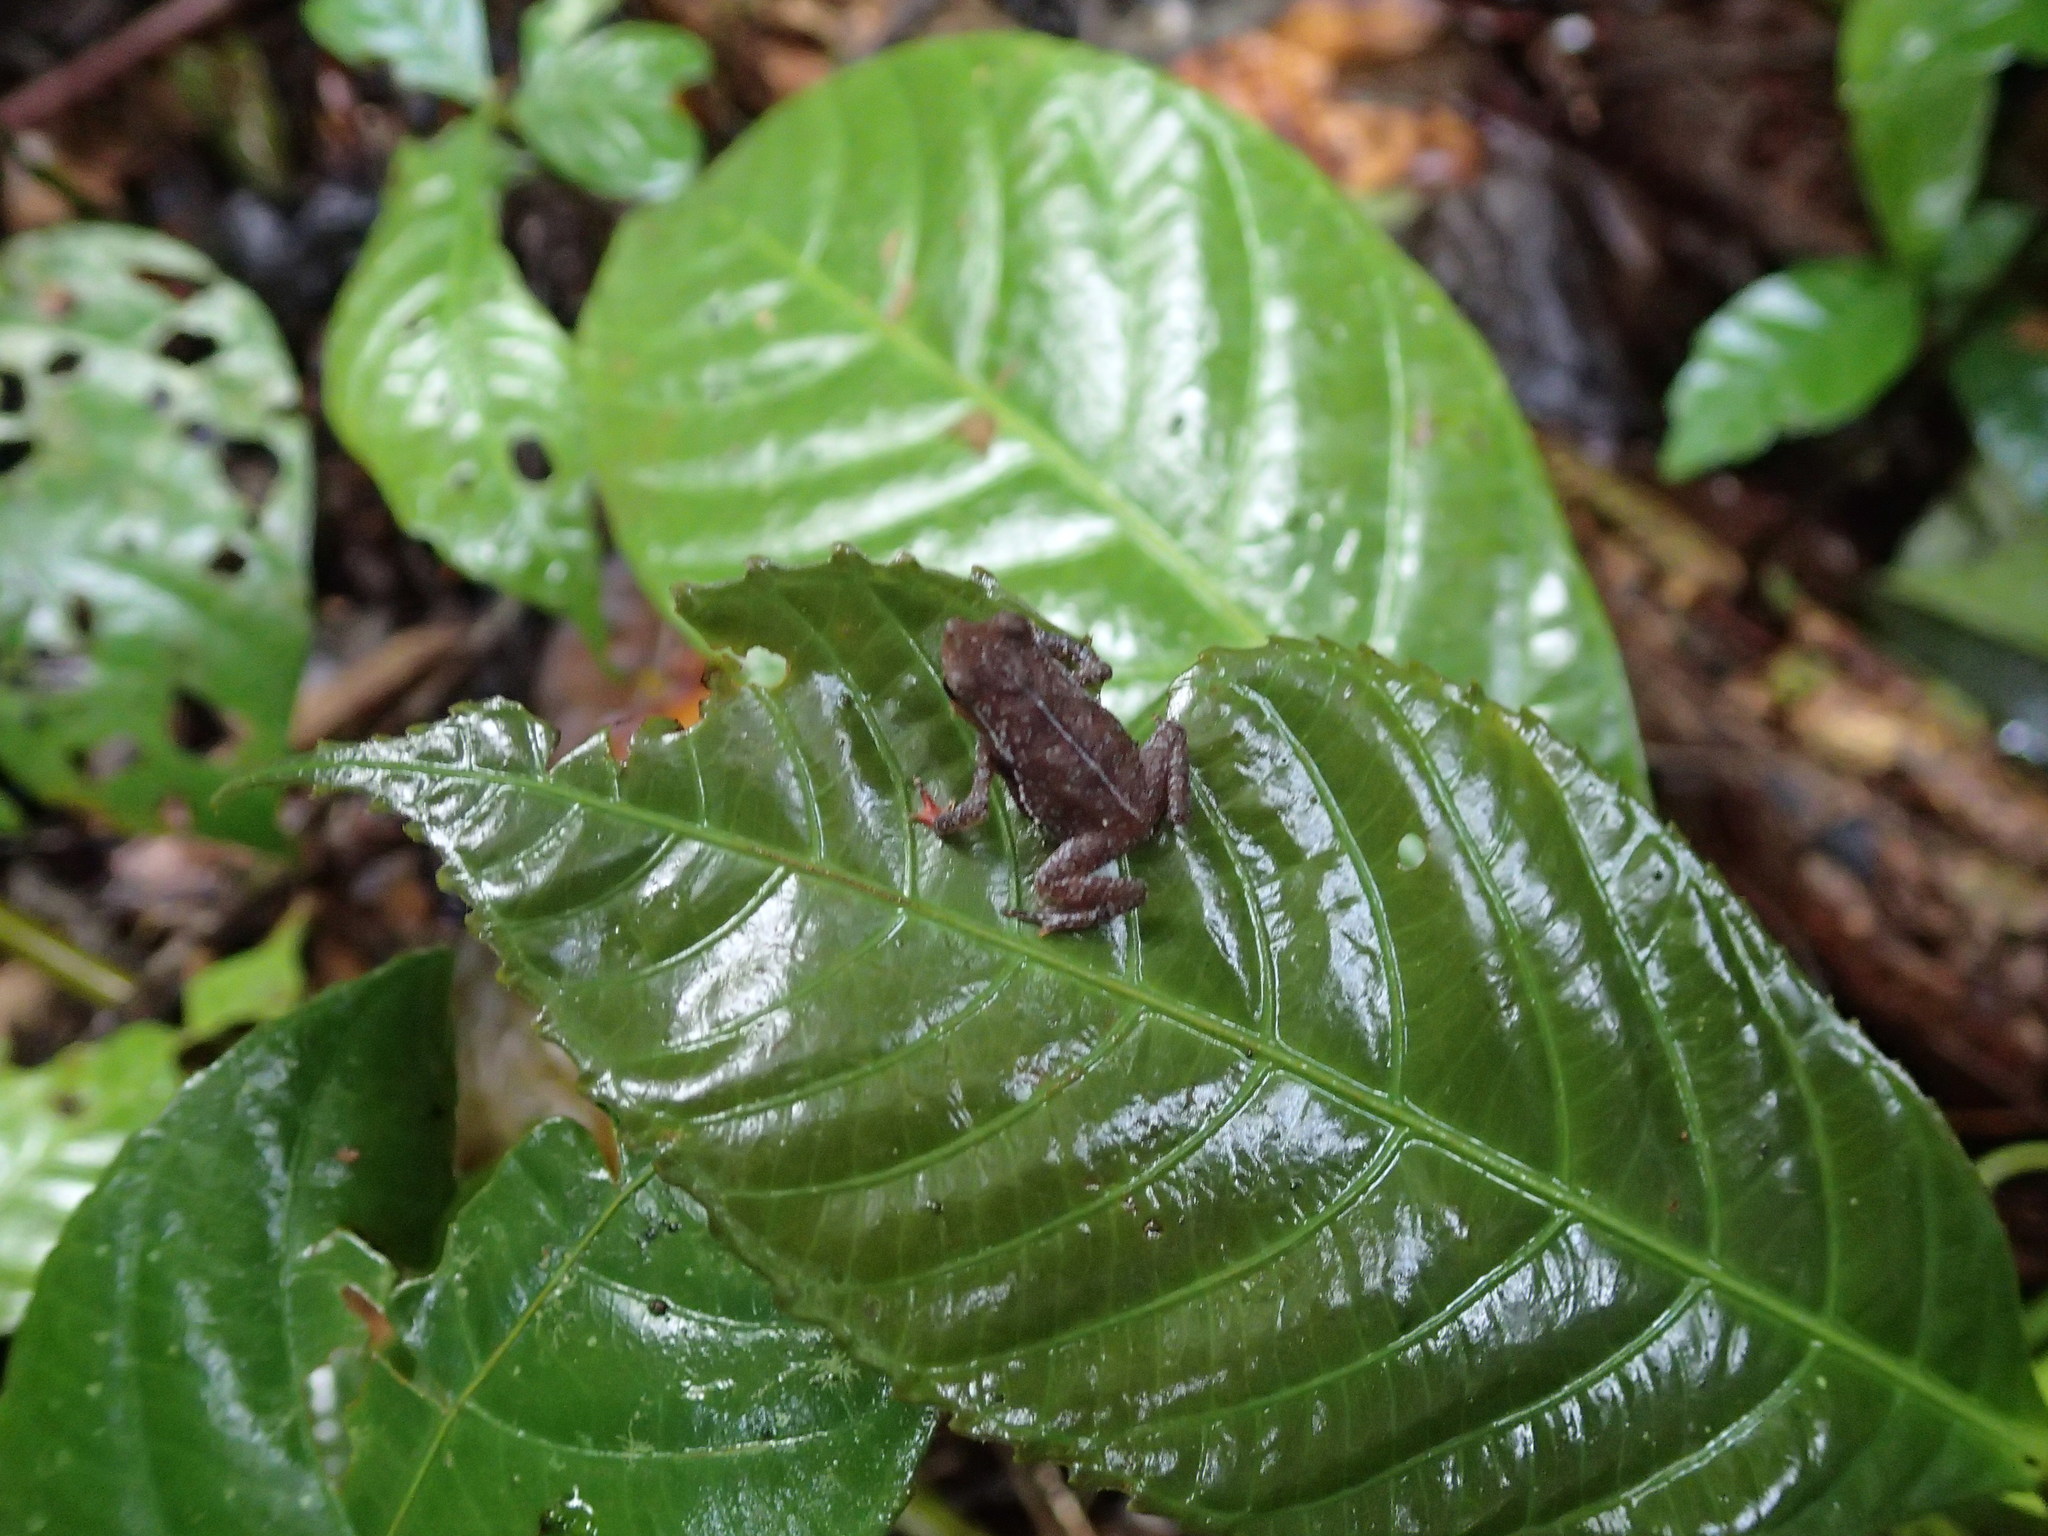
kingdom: Animalia
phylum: Chordata
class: Amphibia
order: Anura
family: Bufonidae
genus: Rhinella
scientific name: Rhinella margaritifera
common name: Mitred toad
